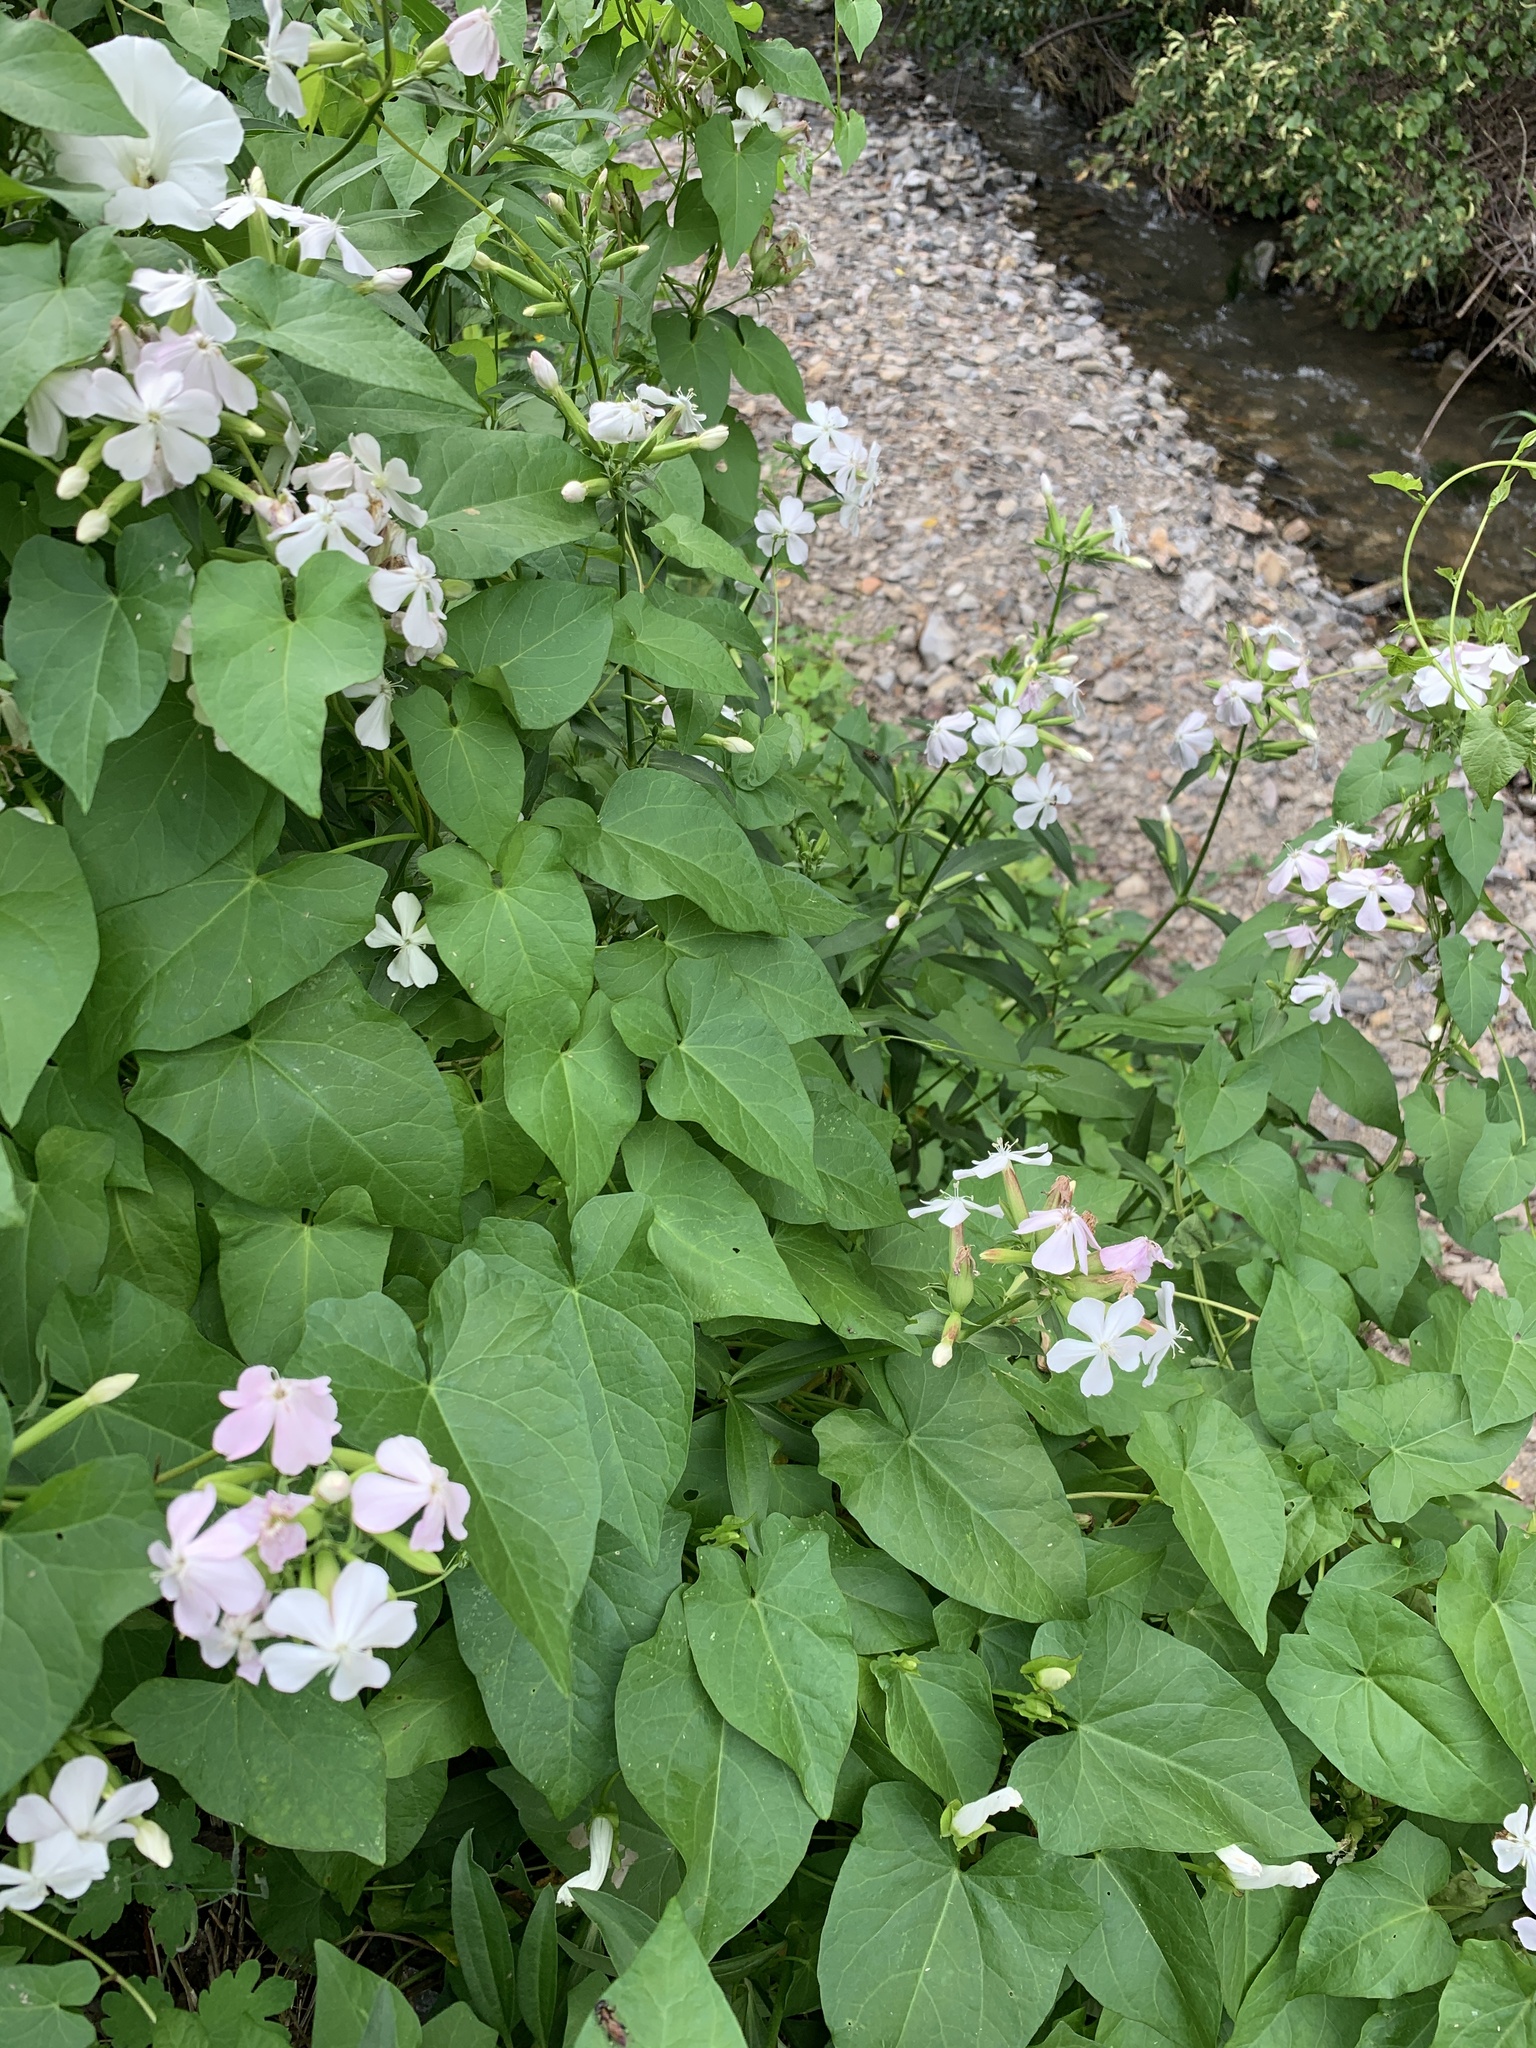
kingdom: Plantae
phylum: Tracheophyta
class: Magnoliopsida
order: Caryophyllales
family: Caryophyllaceae
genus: Saponaria
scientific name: Saponaria officinalis
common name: Soapwort
